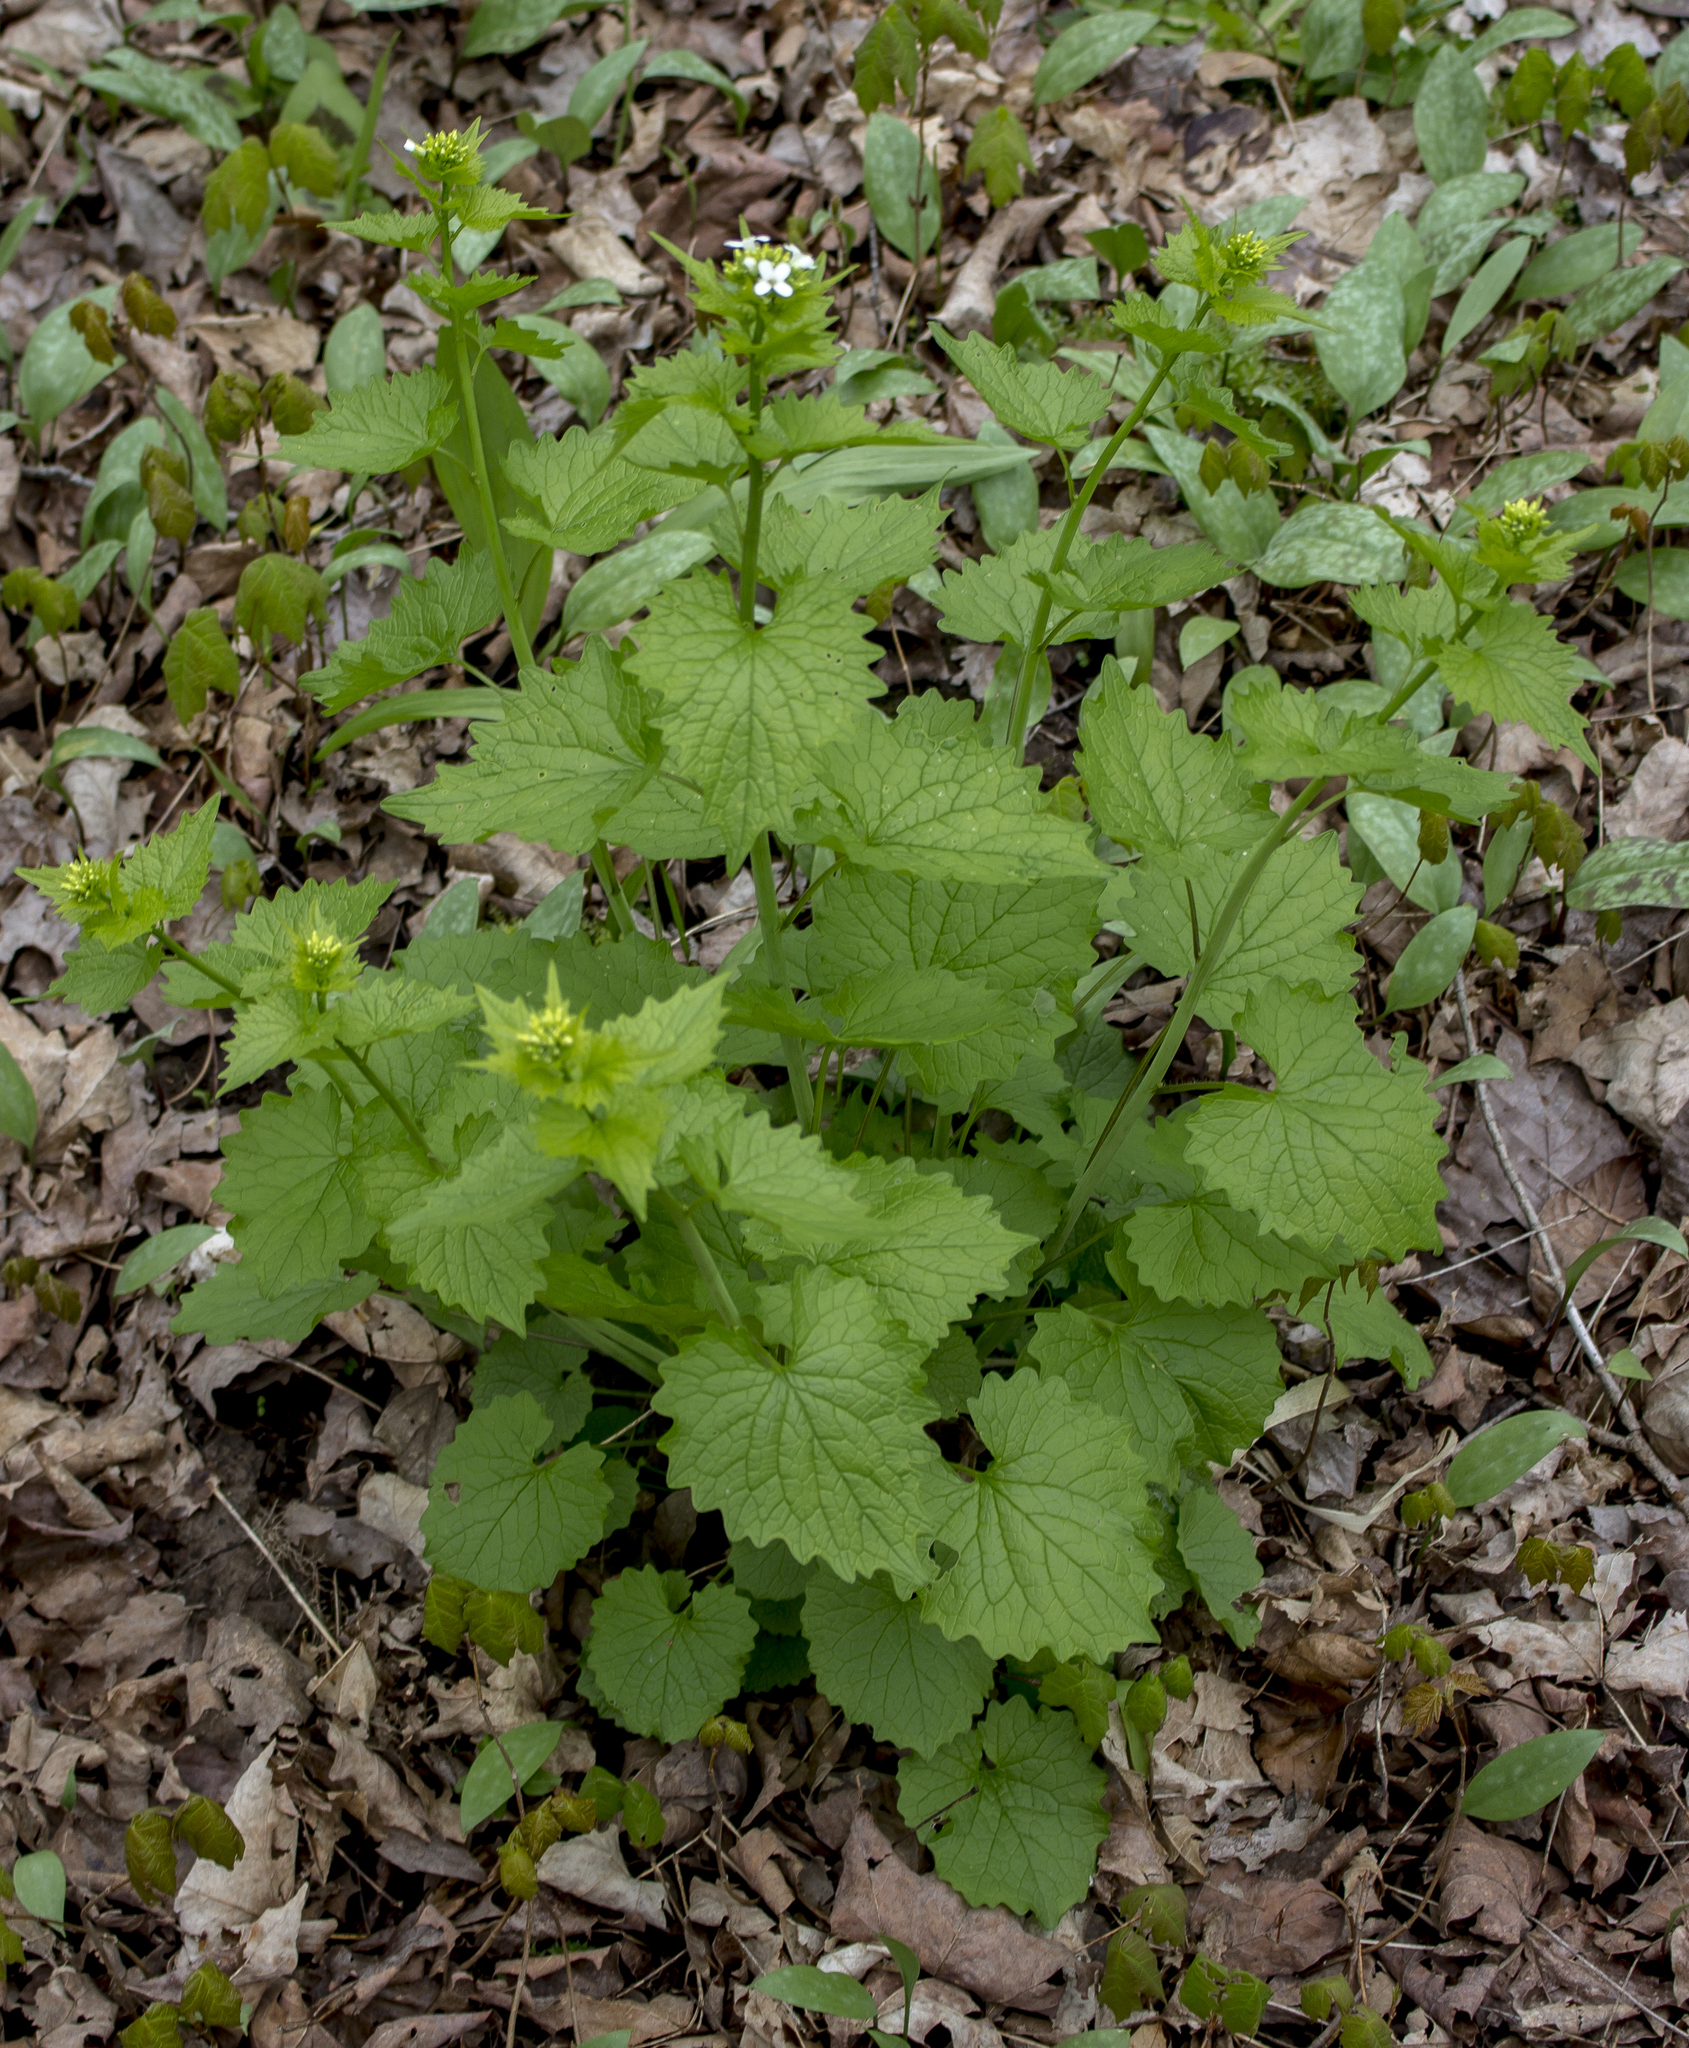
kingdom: Plantae
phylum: Tracheophyta
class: Magnoliopsida
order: Brassicales
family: Brassicaceae
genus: Alliaria
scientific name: Alliaria petiolata
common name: Garlic mustard
